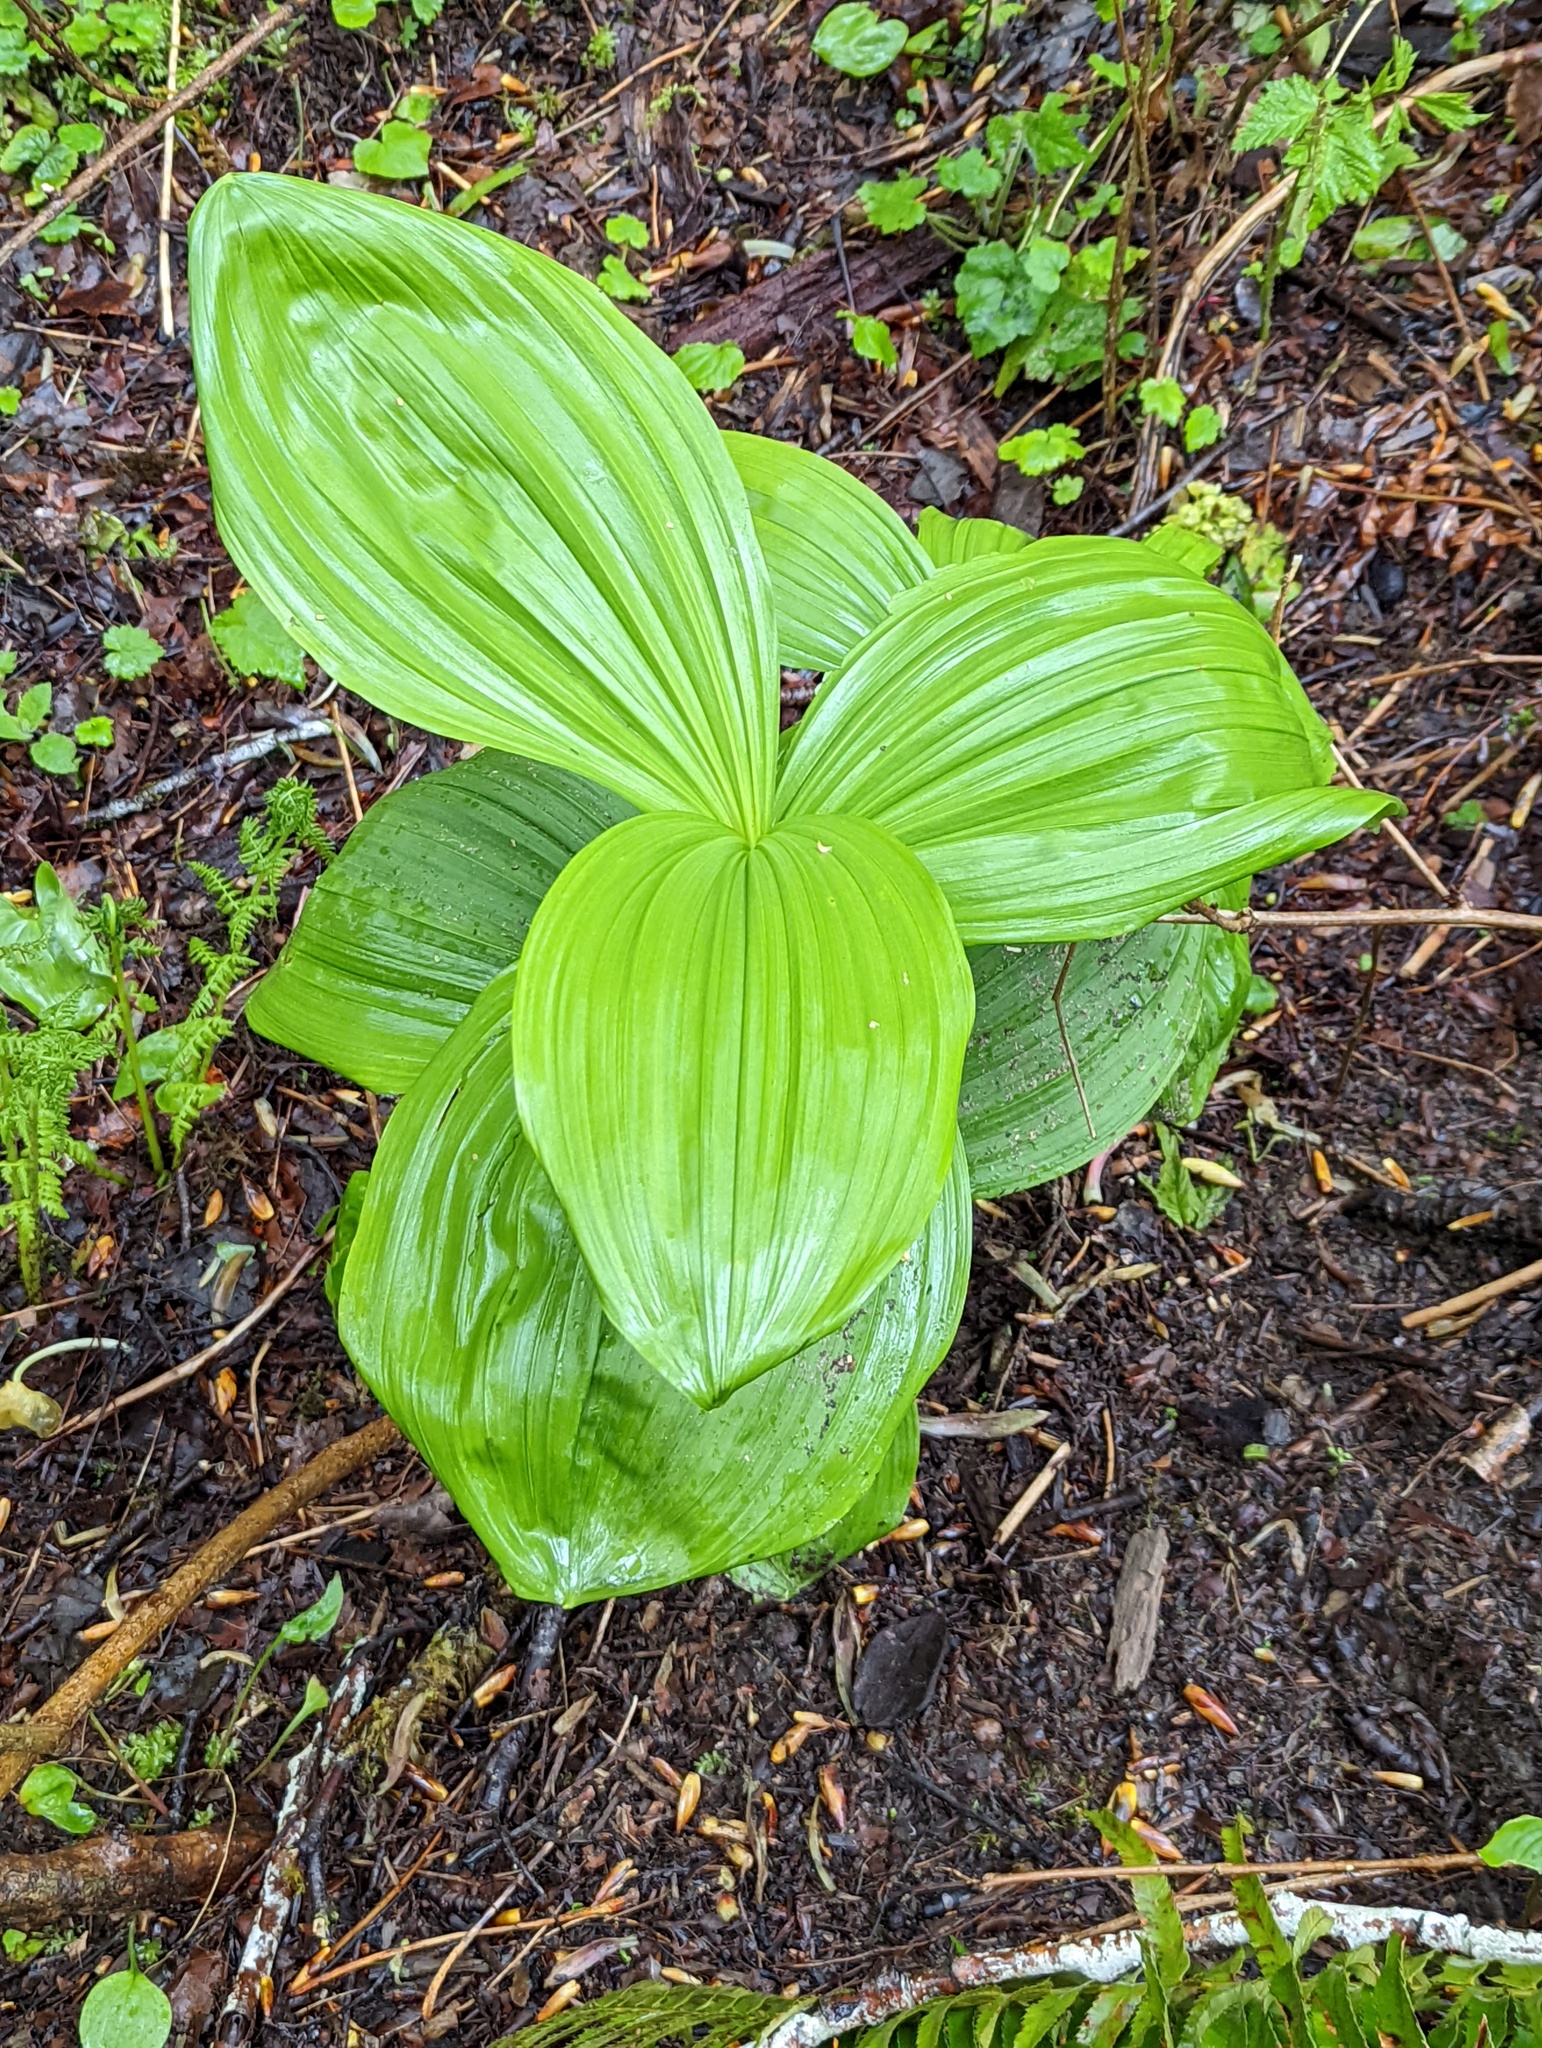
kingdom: Plantae
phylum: Tracheophyta
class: Liliopsida
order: Liliales
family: Melanthiaceae
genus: Veratrum
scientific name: Veratrum viride
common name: American false hellebore
